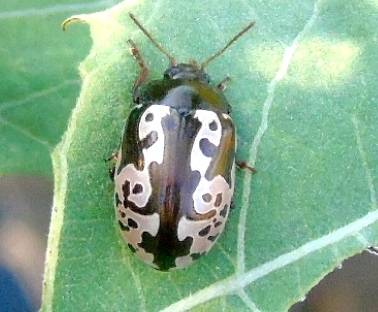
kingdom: Animalia
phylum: Arthropoda
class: Insecta
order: Coleoptera
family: Chrysomelidae
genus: Calligrapha
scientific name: Calligrapha intermedia
